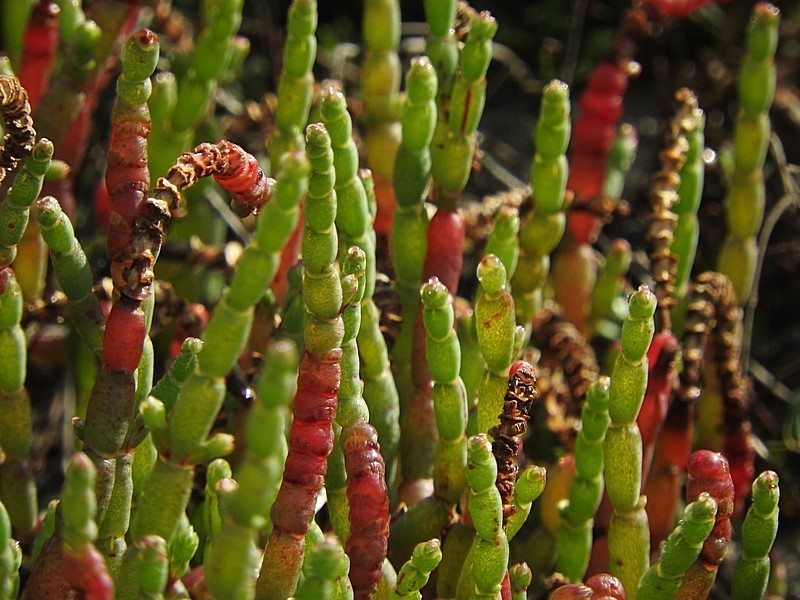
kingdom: Plantae
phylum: Tracheophyta
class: Magnoliopsida
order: Caryophyllales
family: Amaranthaceae
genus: Salicornia
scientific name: Salicornia quinqueflora
